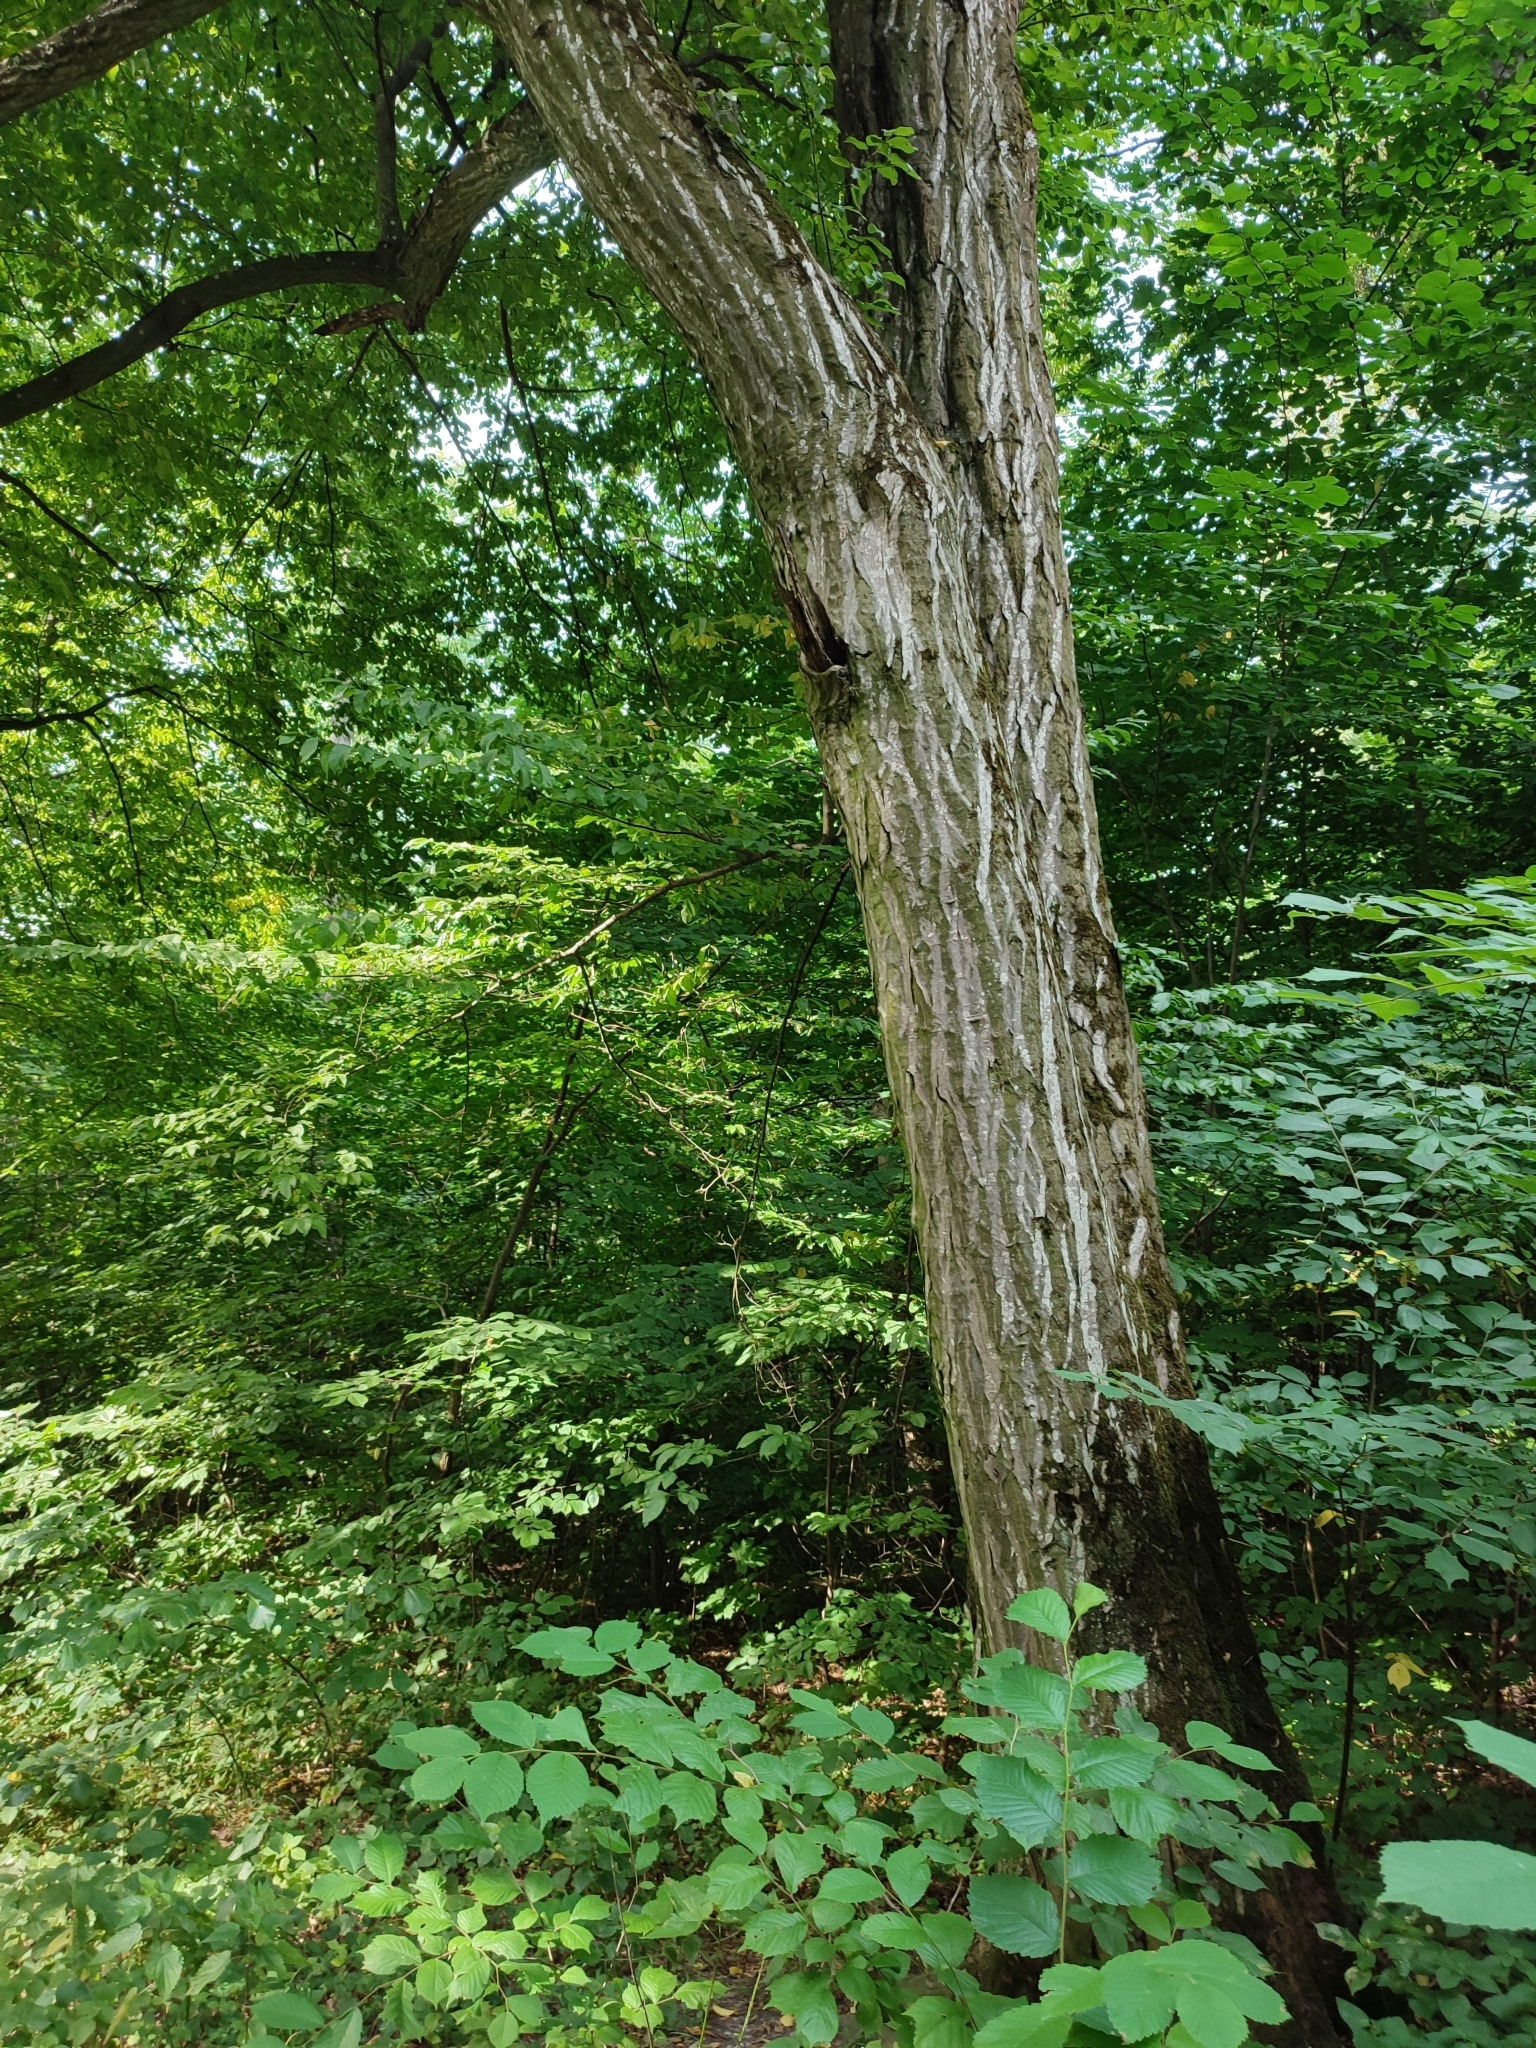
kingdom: Plantae
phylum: Tracheophyta
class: Magnoliopsida
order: Fagales
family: Betulaceae
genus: Carpinus
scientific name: Carpinus betulus
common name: Hornbeam
